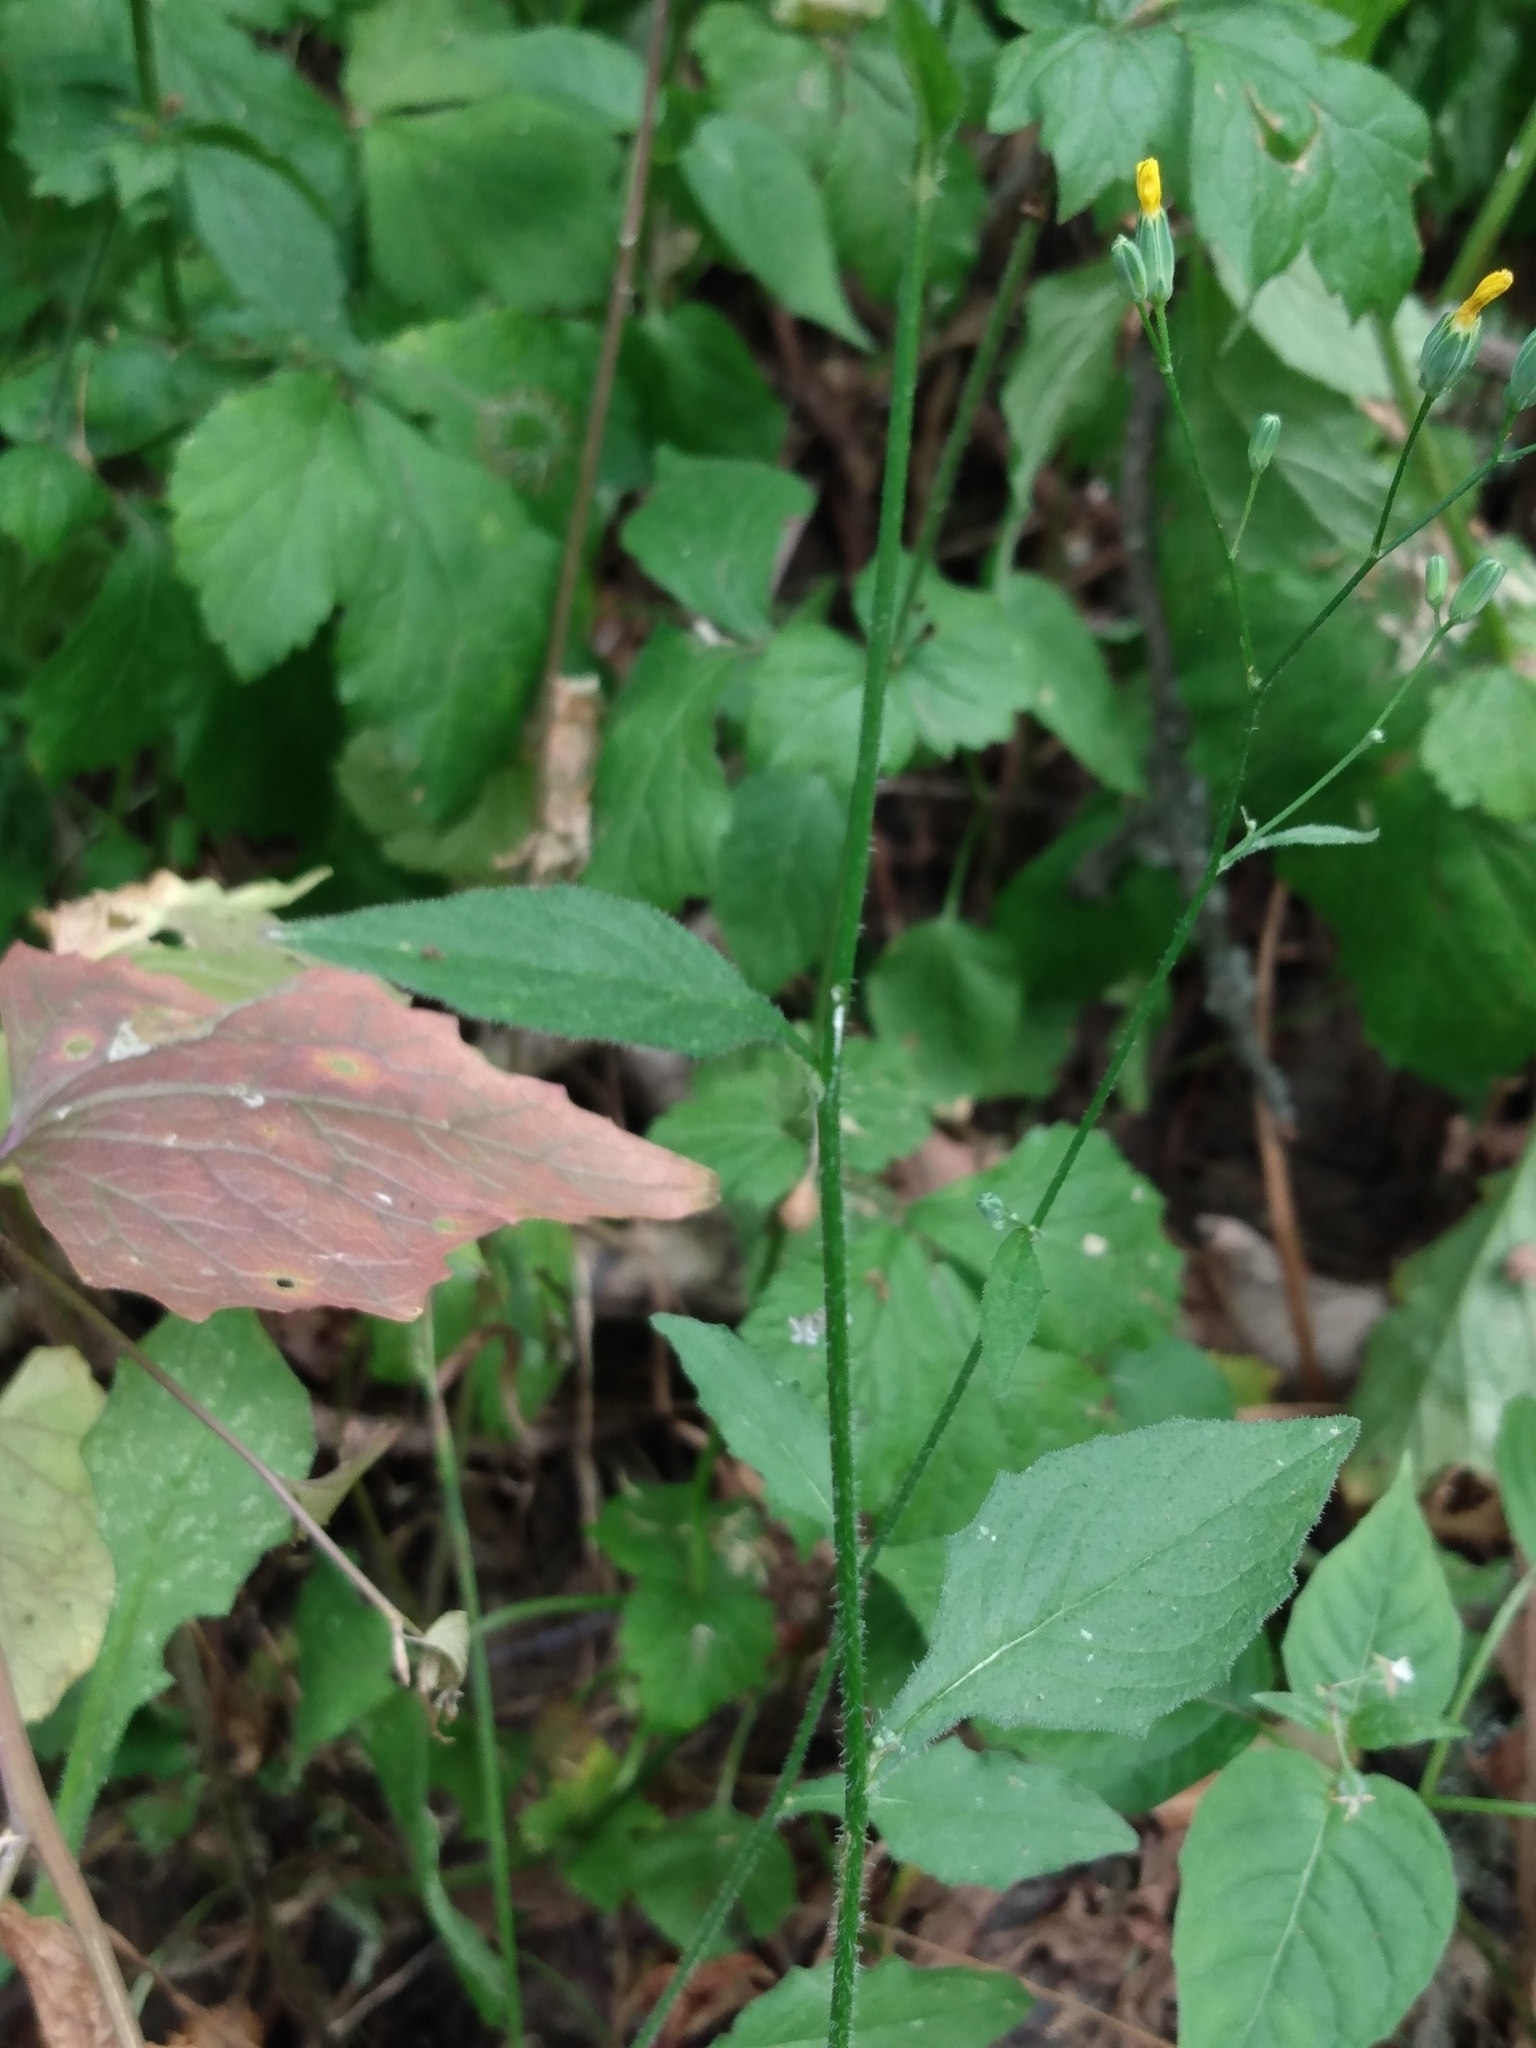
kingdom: Plantae
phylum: Tracheophyta
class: Magnoliopsida
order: Asterales
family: Asteraceae
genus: Lapsana
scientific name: Lapsana communis
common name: Nipplewort
